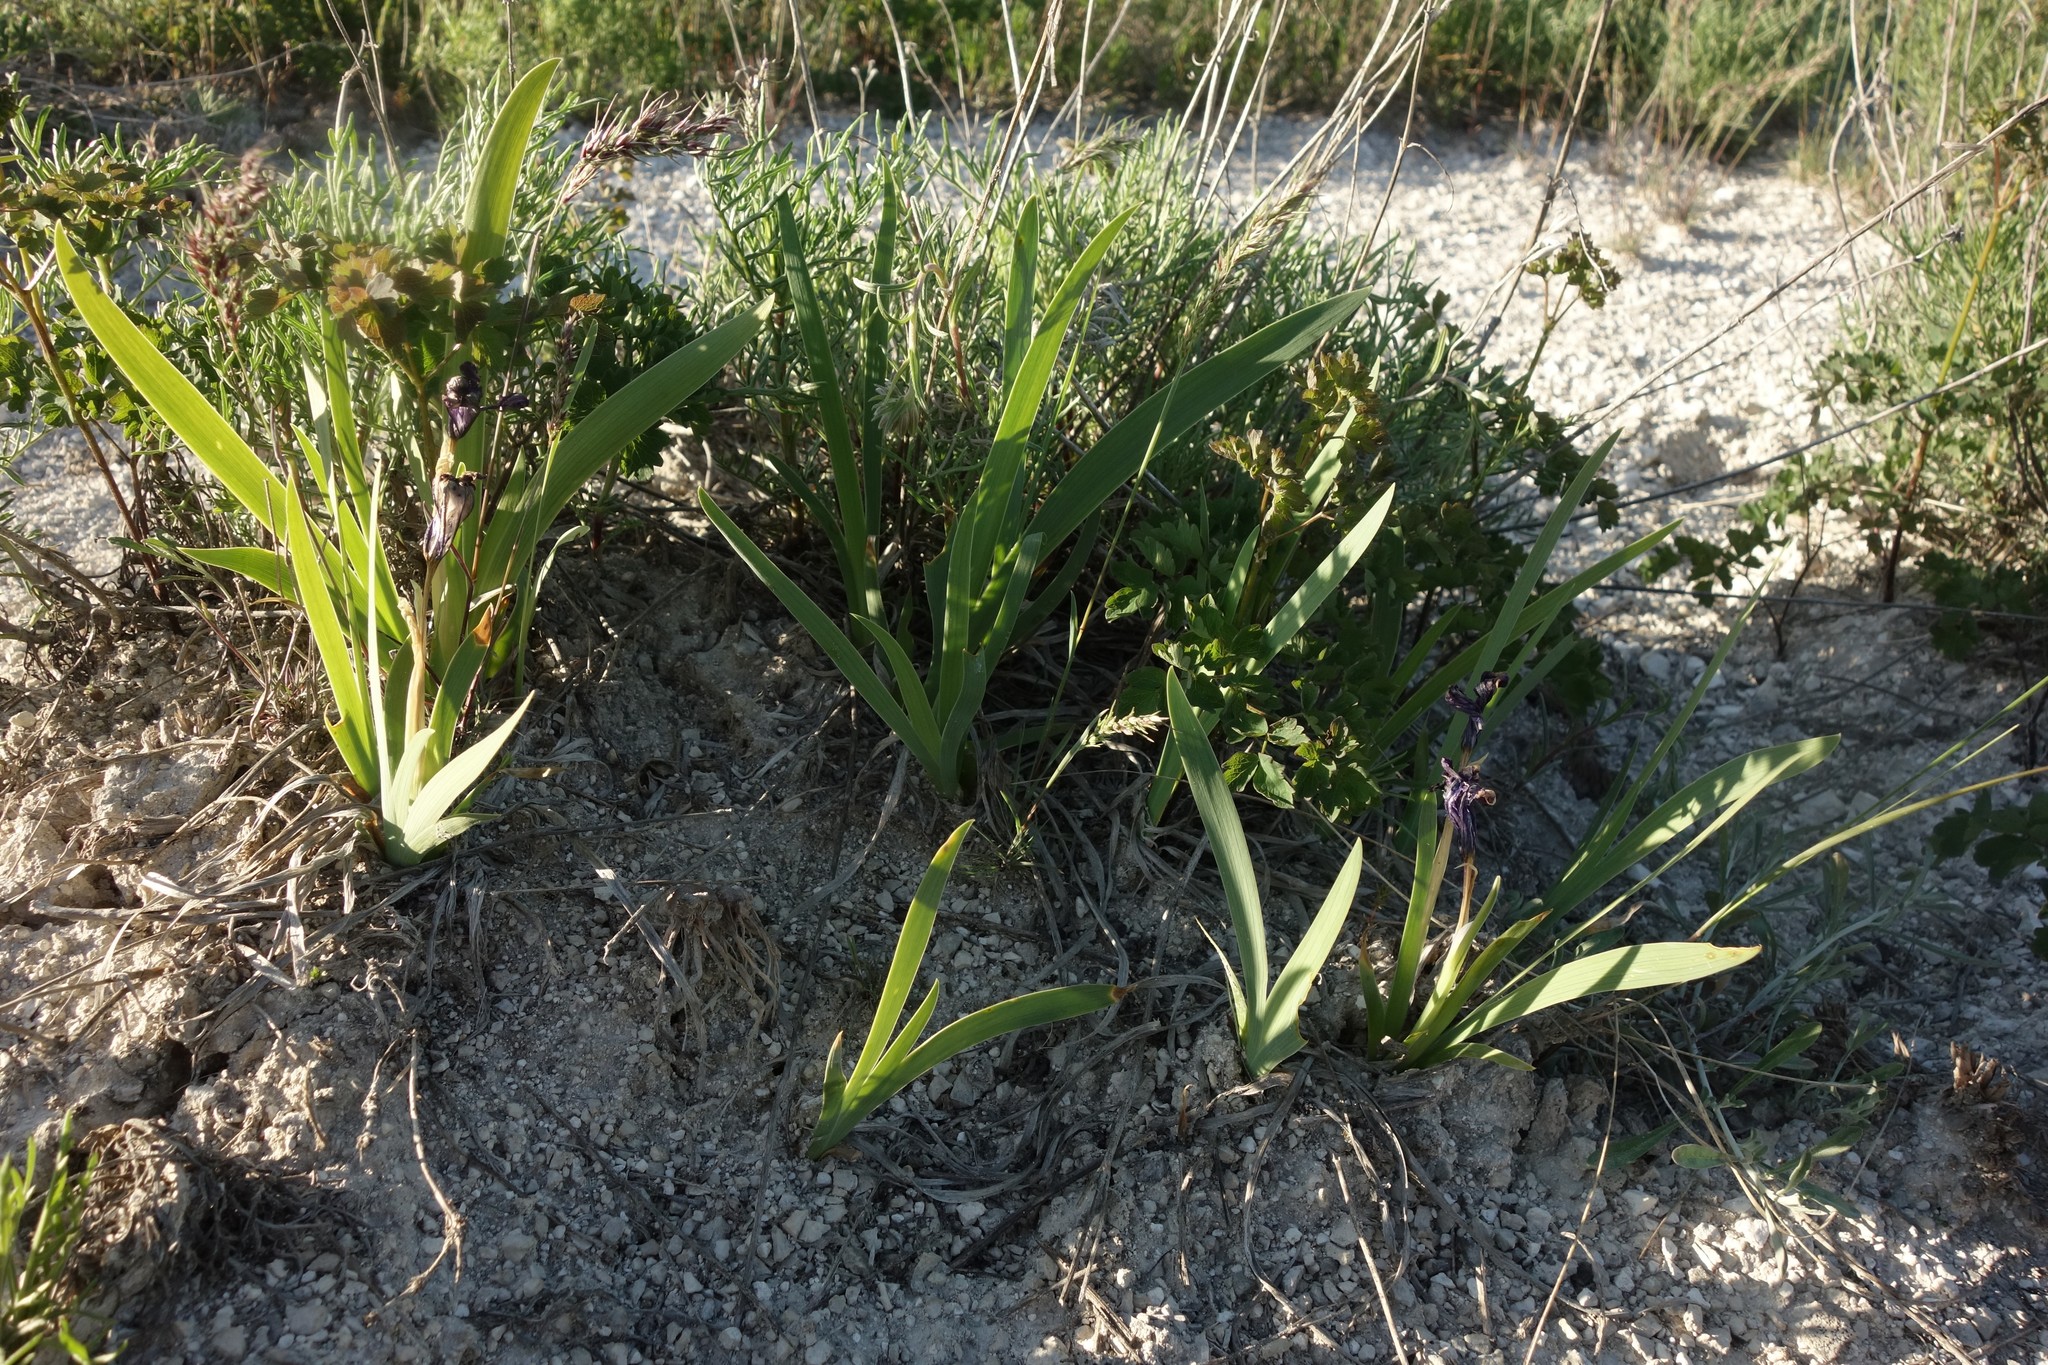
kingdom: Plantae
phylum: Tracheophyta
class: Liliopsida
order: Asparagales
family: Iridaceae
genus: Iris
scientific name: Iris pumila
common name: Dwarf iris
